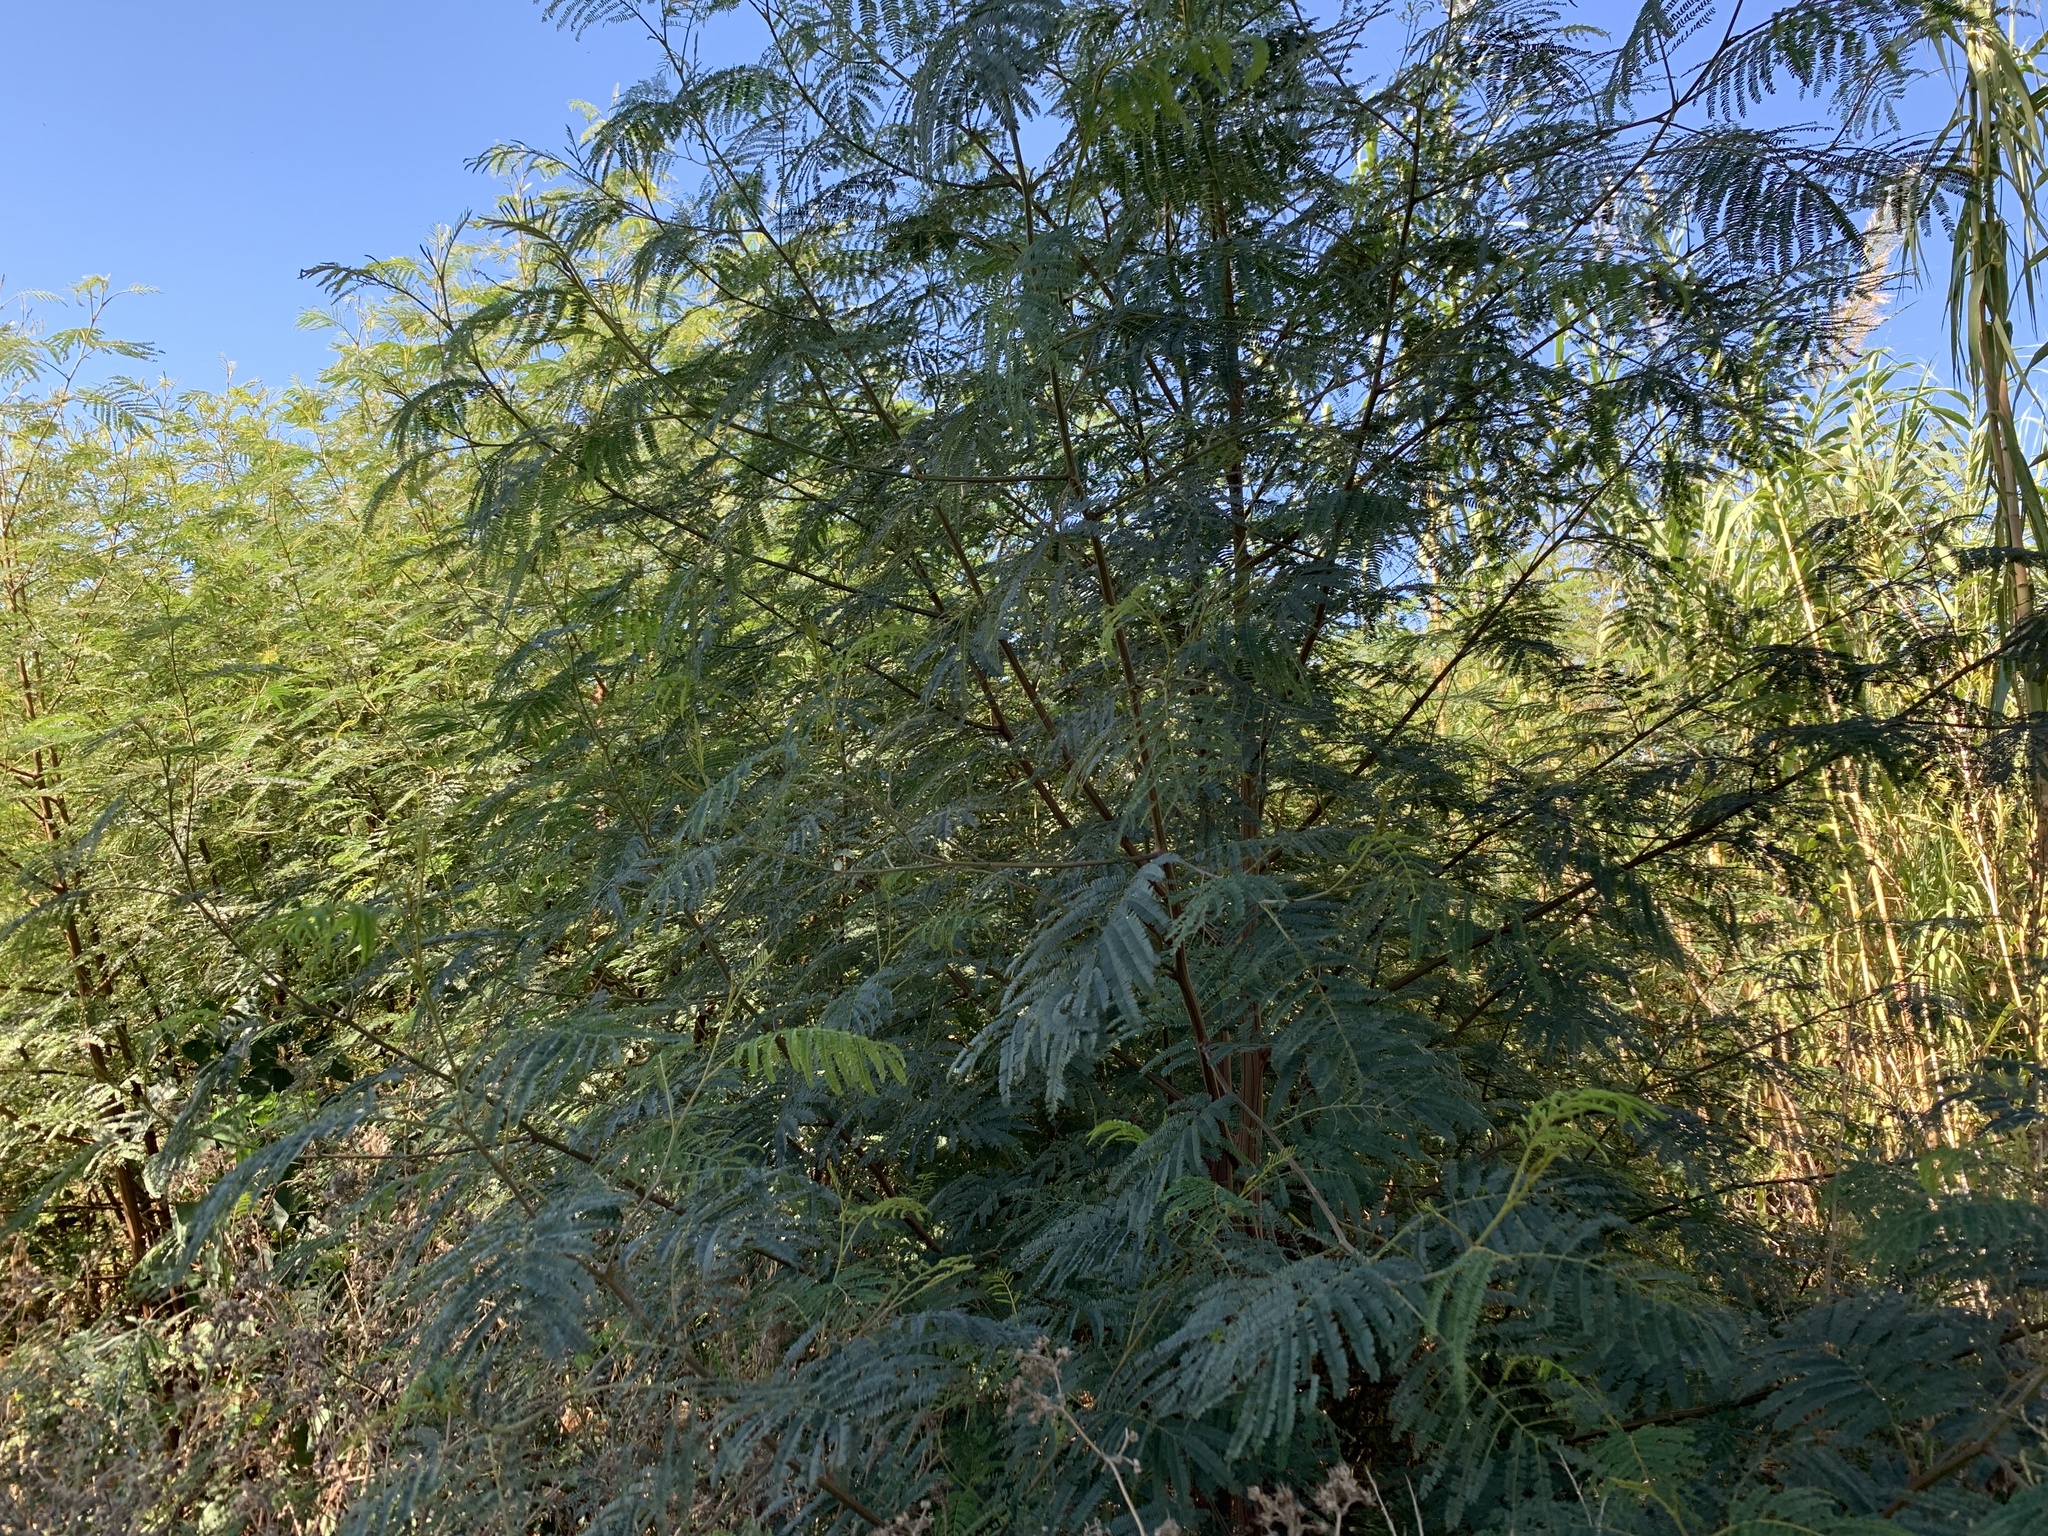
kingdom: Plantae
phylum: Tracheophyta
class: Magnoliopsida
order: Fabales
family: Fabaceae
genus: Paraserianthes
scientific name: Paraserianthes lophantha
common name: Plume albizia
